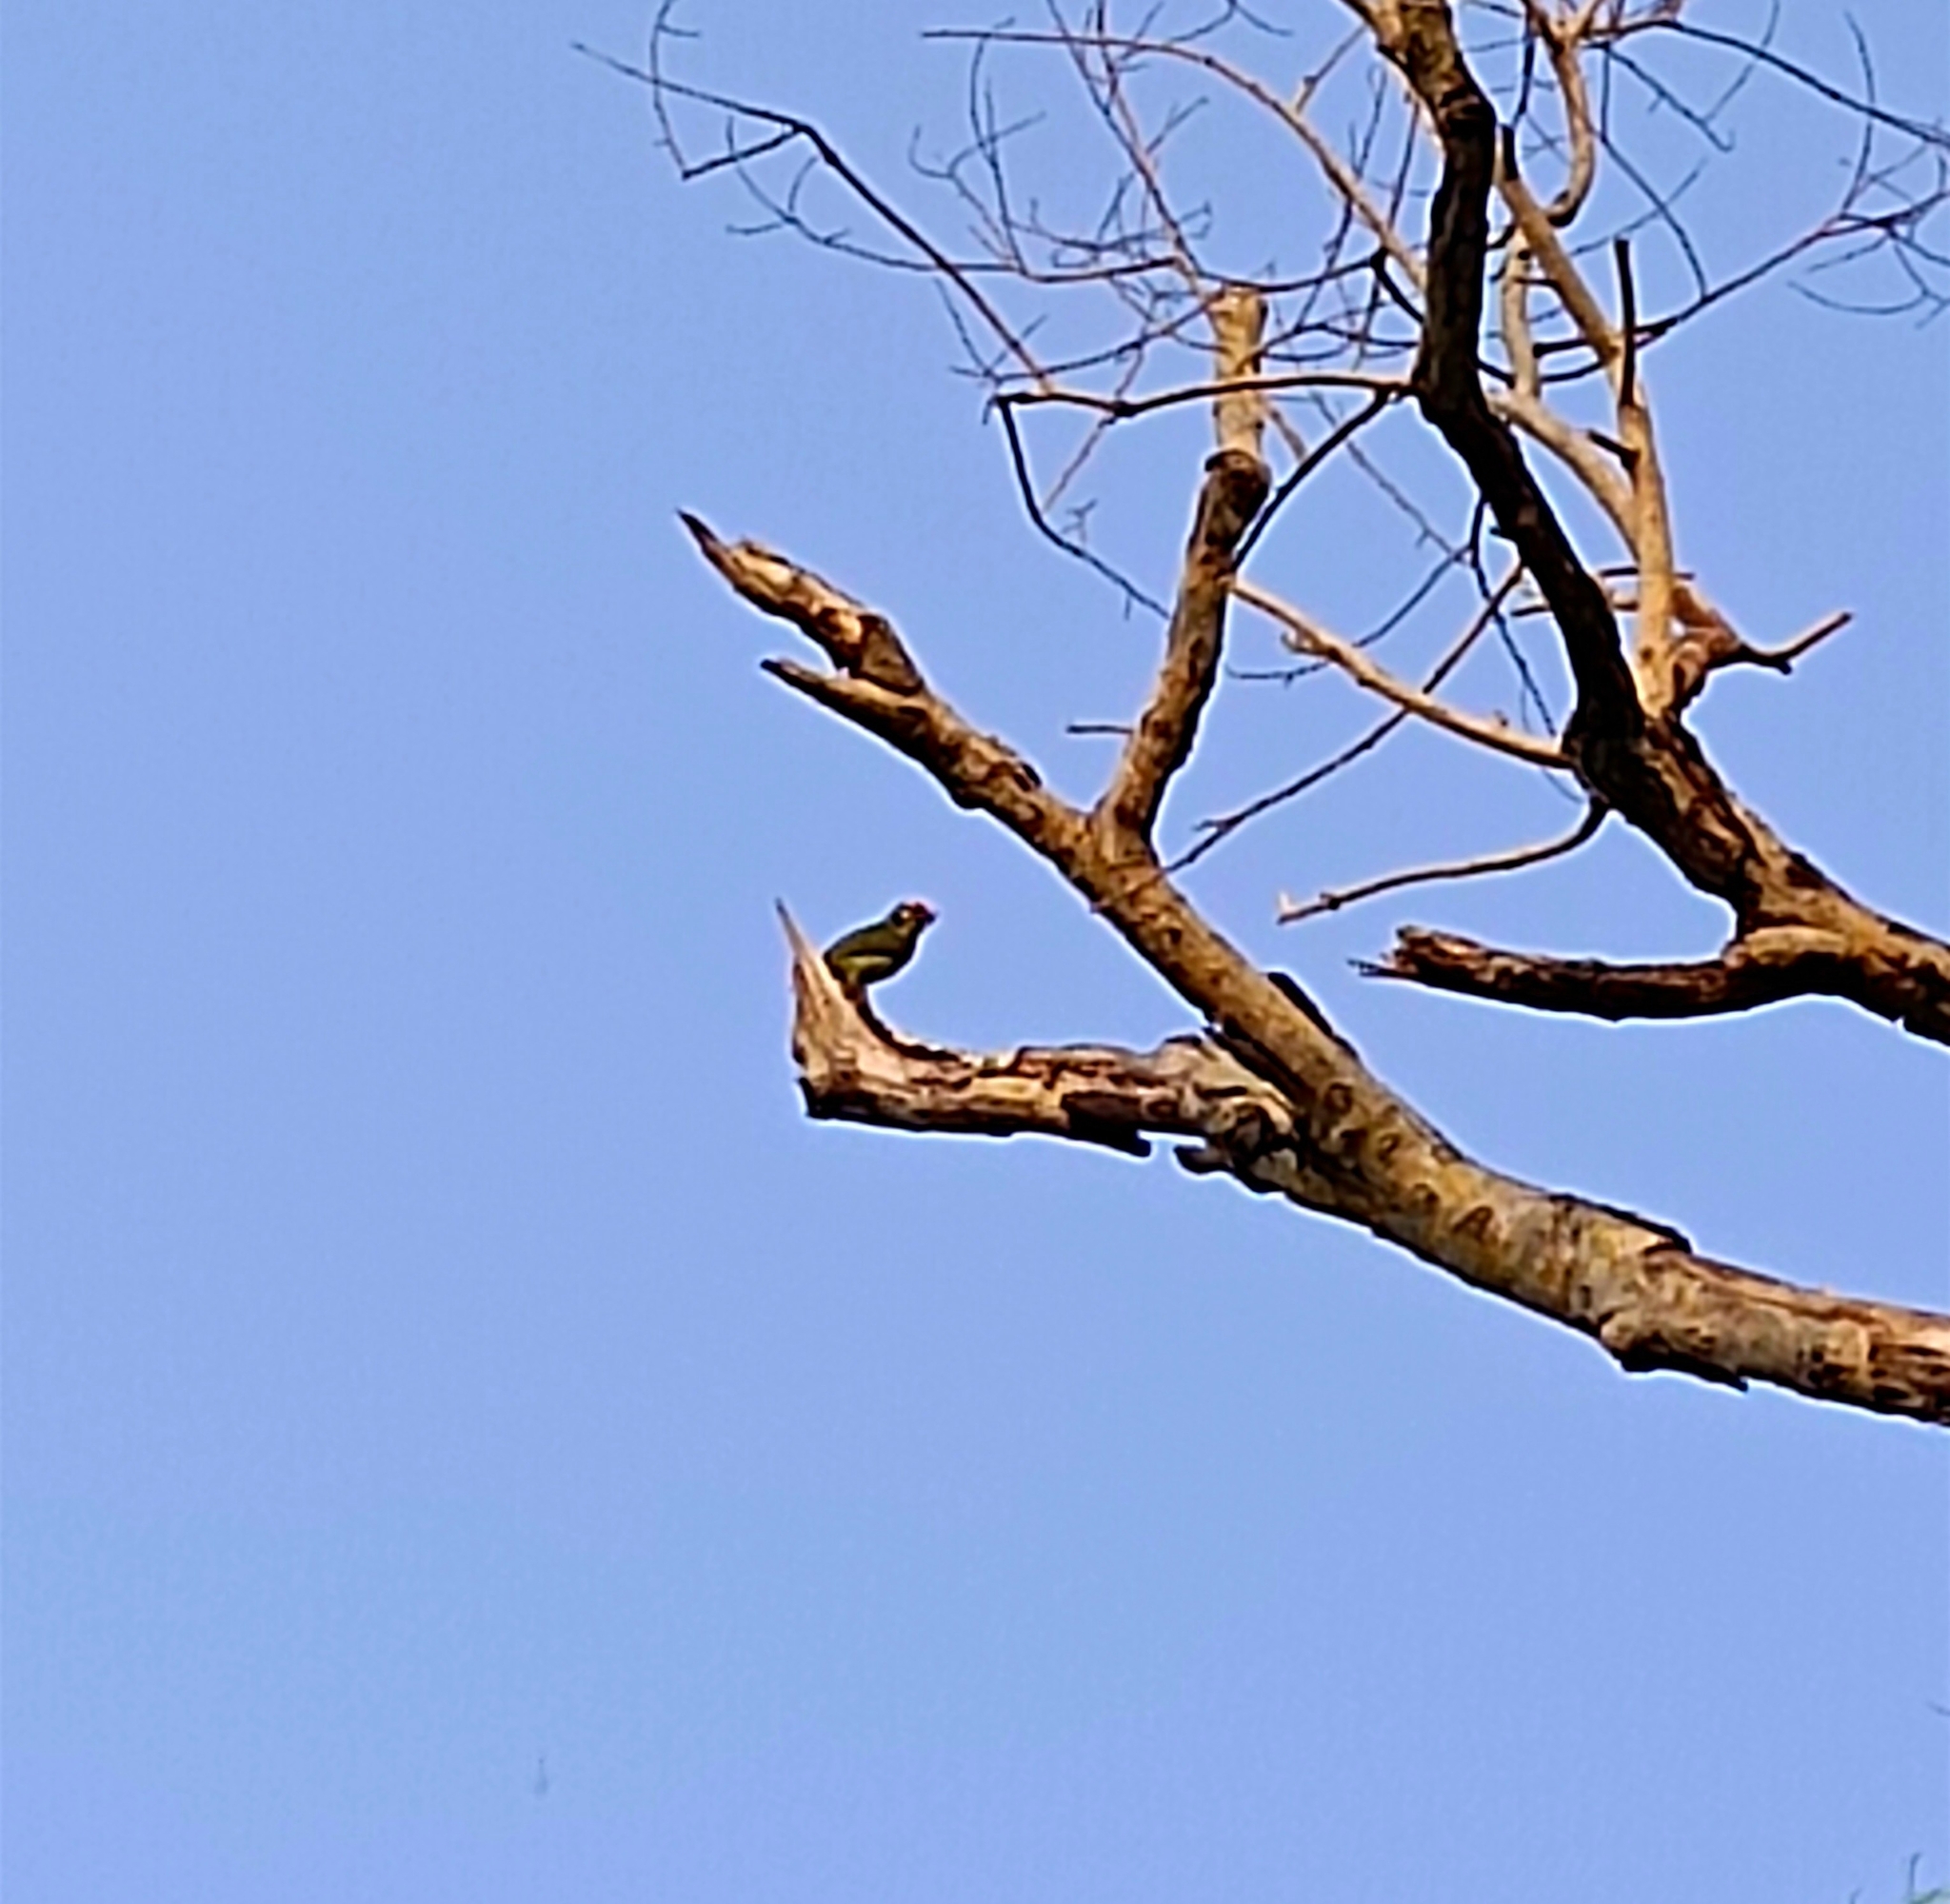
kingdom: Animalia
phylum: Chordata
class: Aves
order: Piciformes
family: Megalaimidae
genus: Psilopogon
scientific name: Psilopogon haemacephalus
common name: Coppersmith barbet
